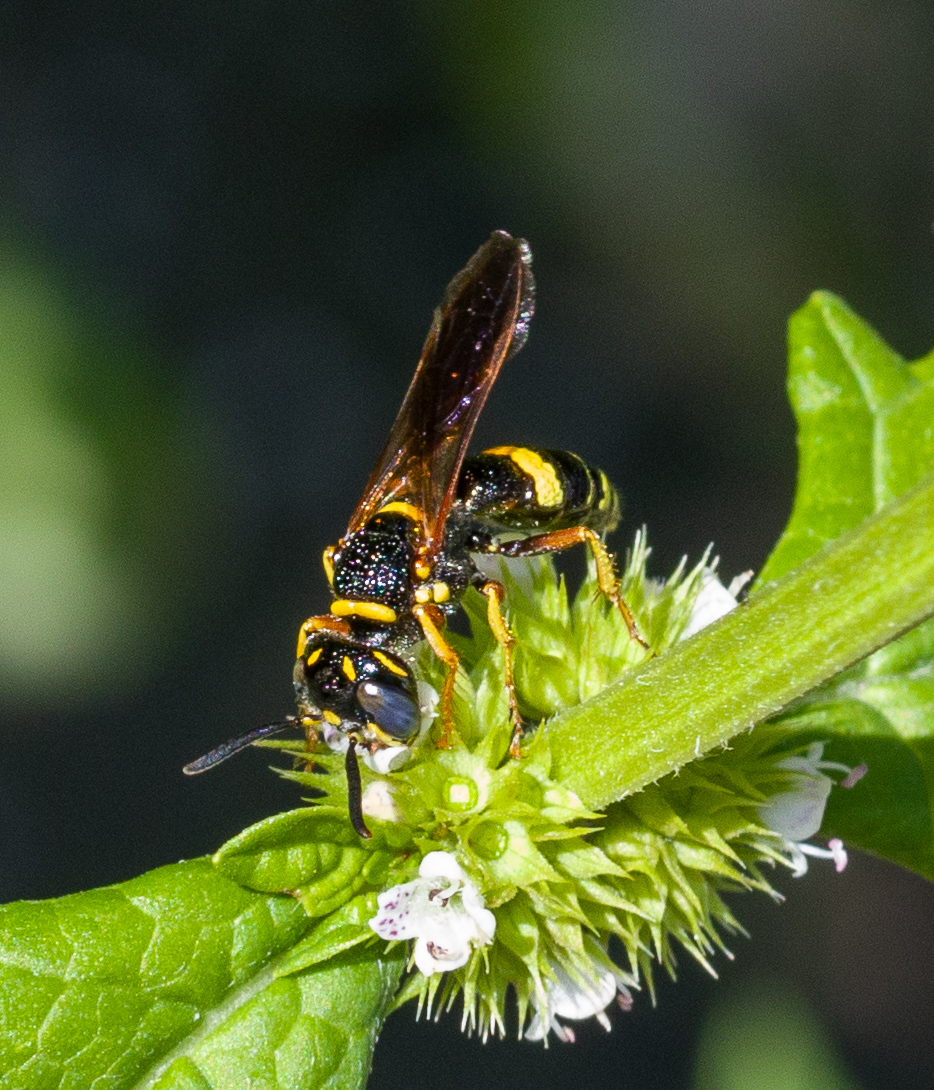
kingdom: Animalia
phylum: Arthropoda
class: Insecta
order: Hymenoptera
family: Crabronidae
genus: Philanthus
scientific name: Philanthus gibbosus
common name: Humped beewolf
